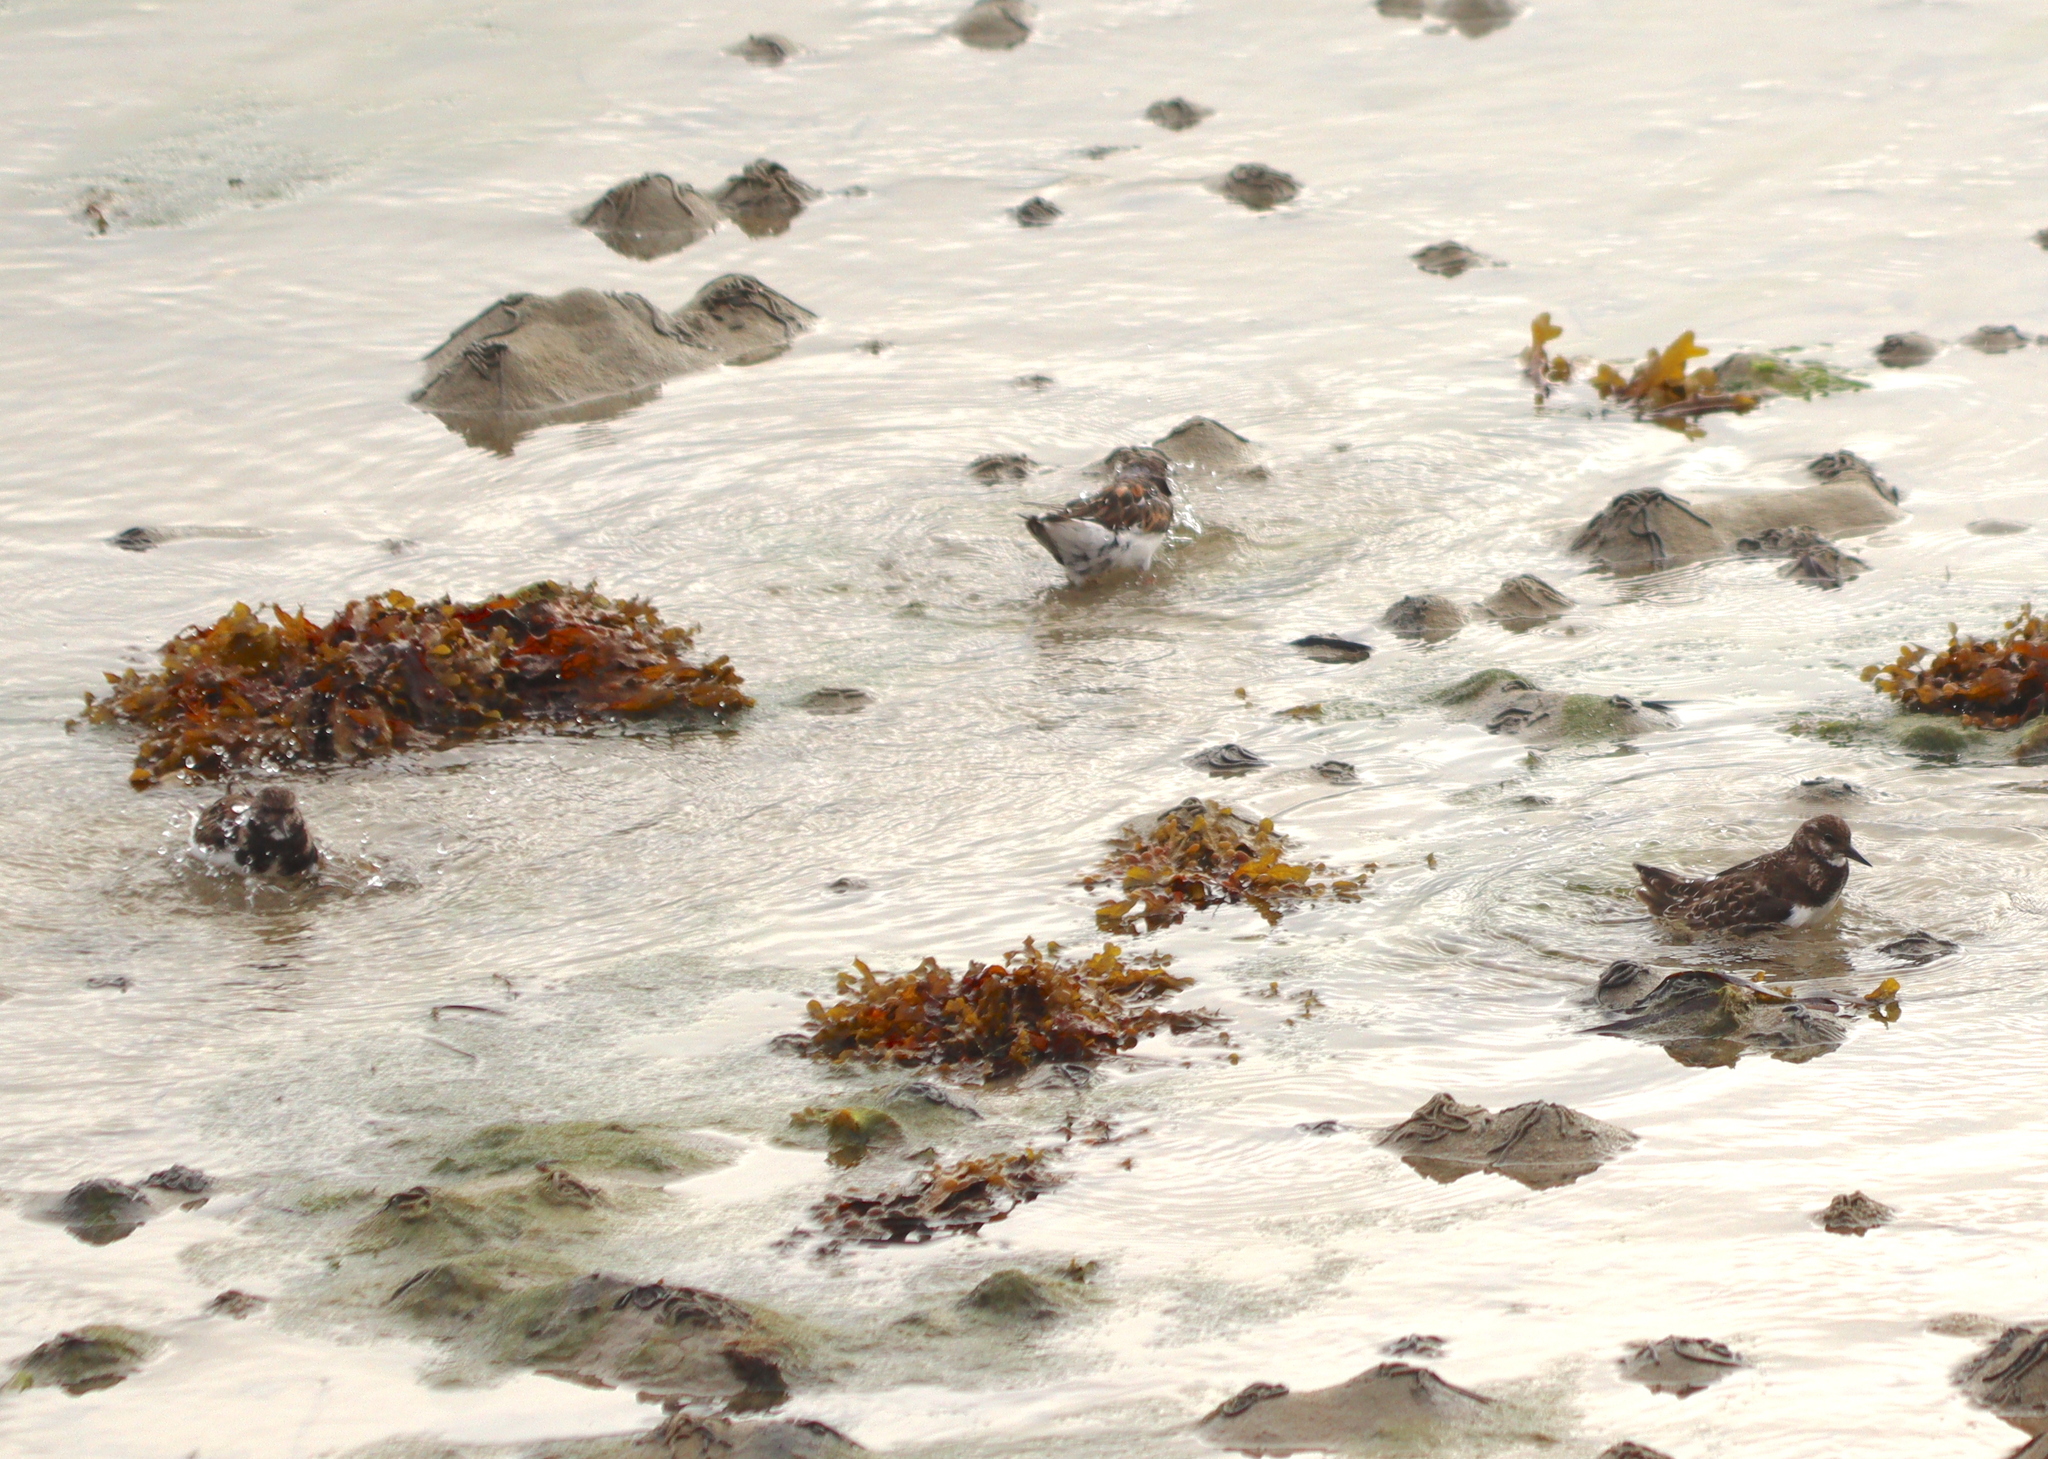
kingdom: Animalia
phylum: Chordata
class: Aves
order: Charadriiformes
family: Scolopacidae
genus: Arenaria
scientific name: Arenaria interpres
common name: Ruddy turnstone
